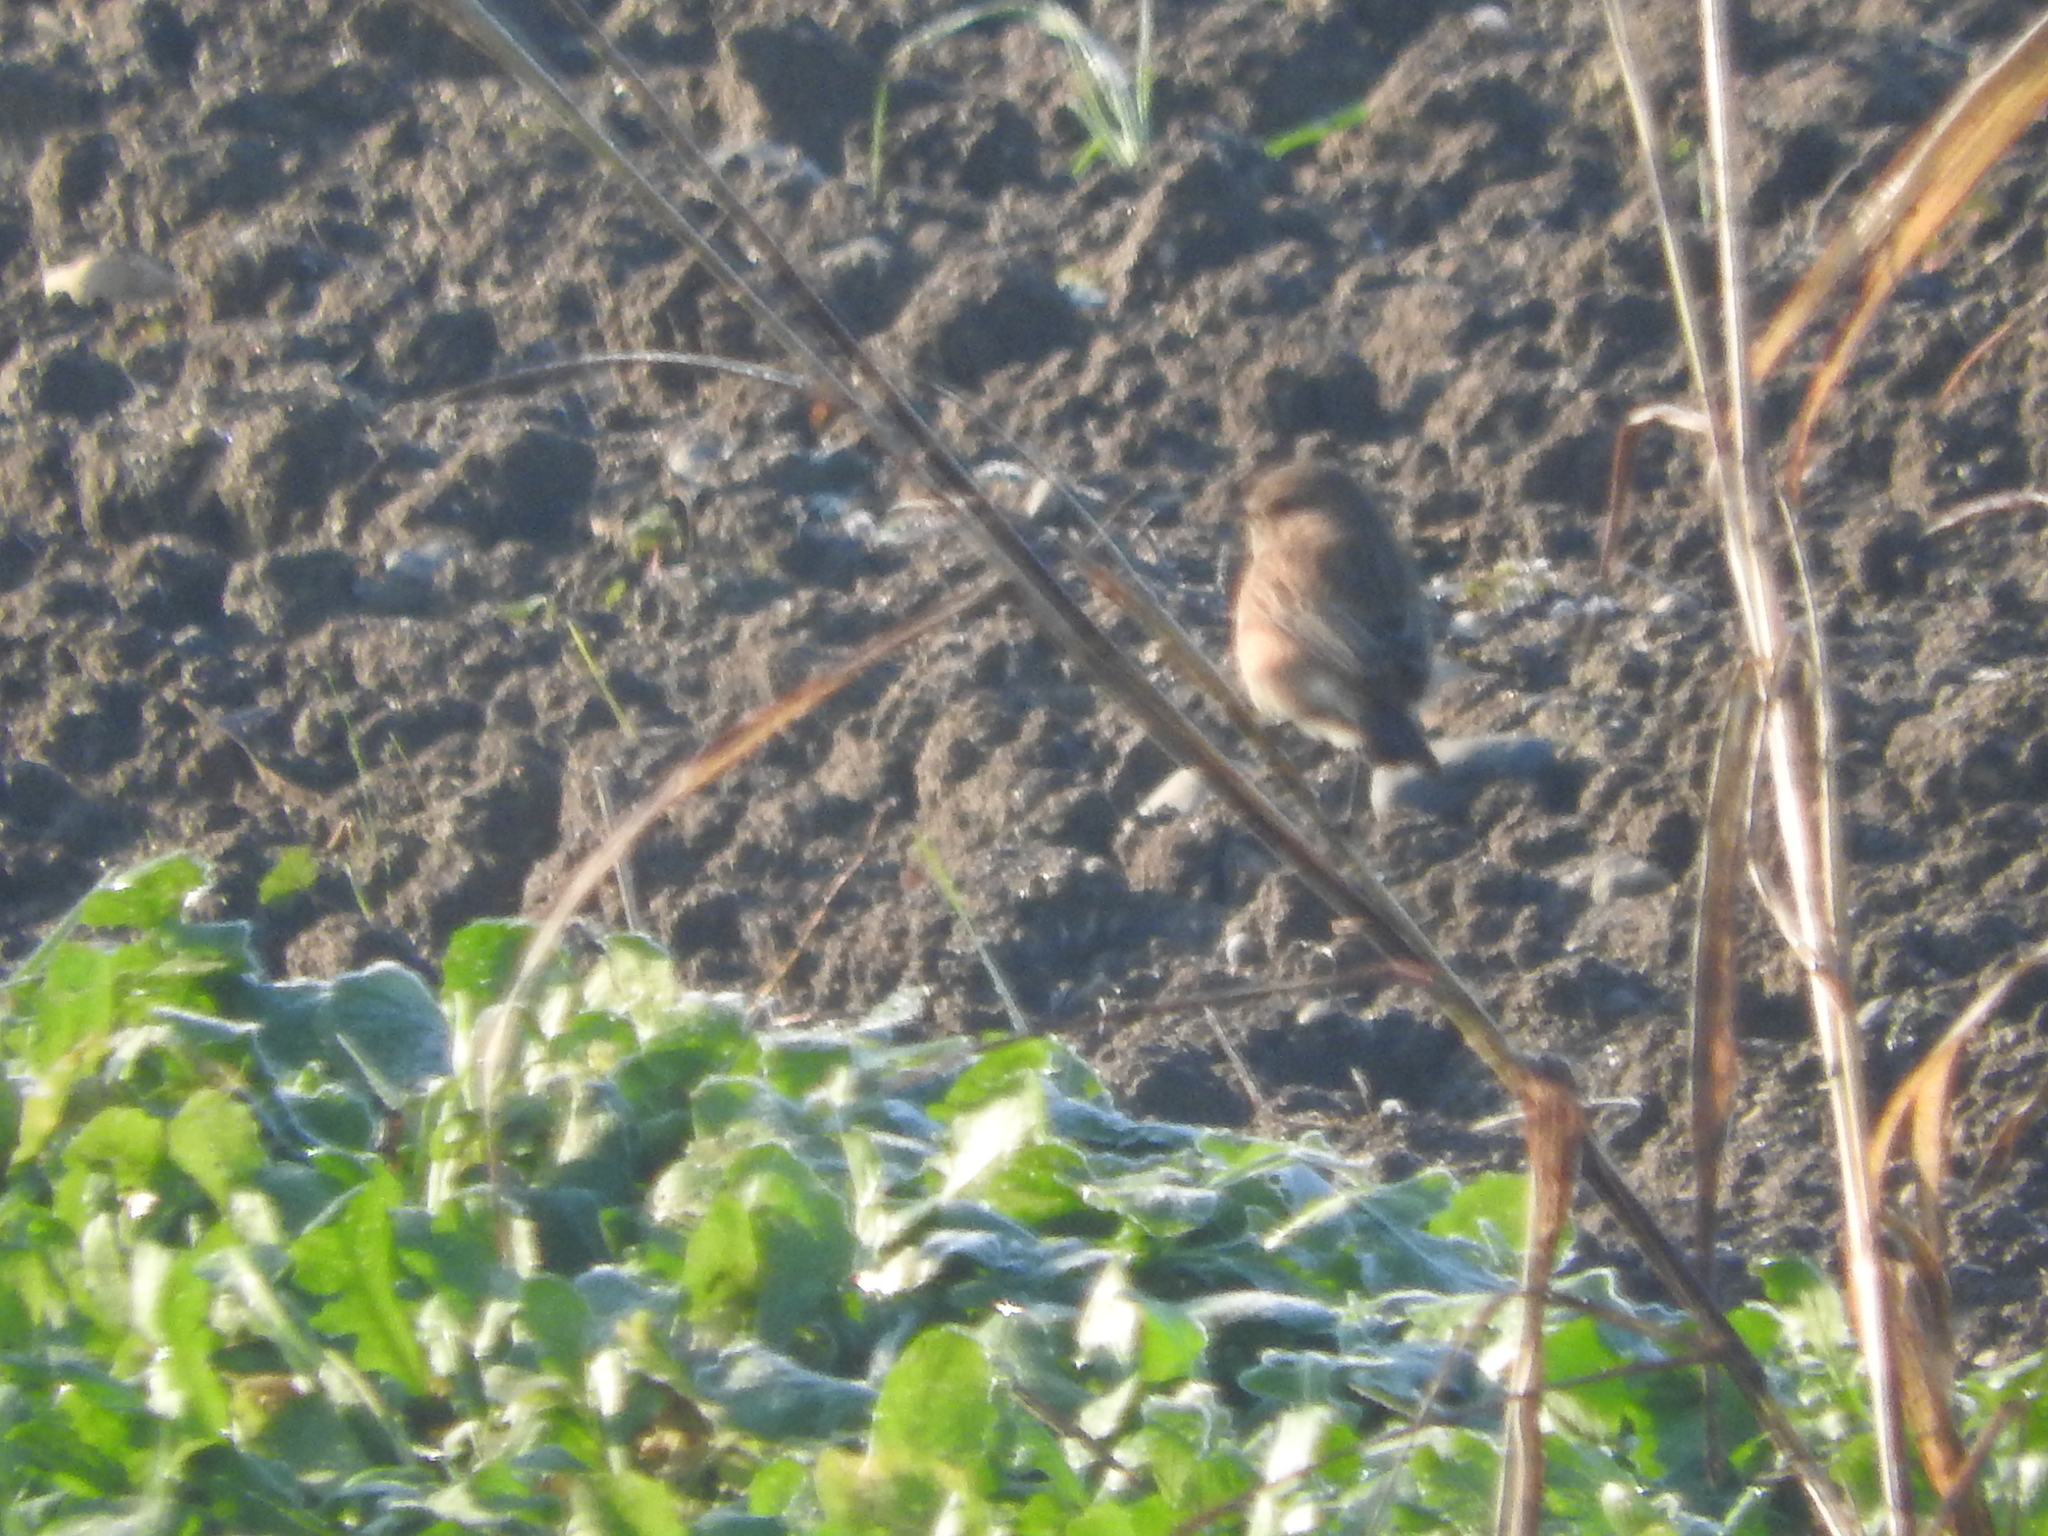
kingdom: Animalia
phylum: Chordata
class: Aves
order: Passeriformes
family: Muscicapidae
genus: Saxicola
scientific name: Saxicola rubicola
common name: European stonechat
